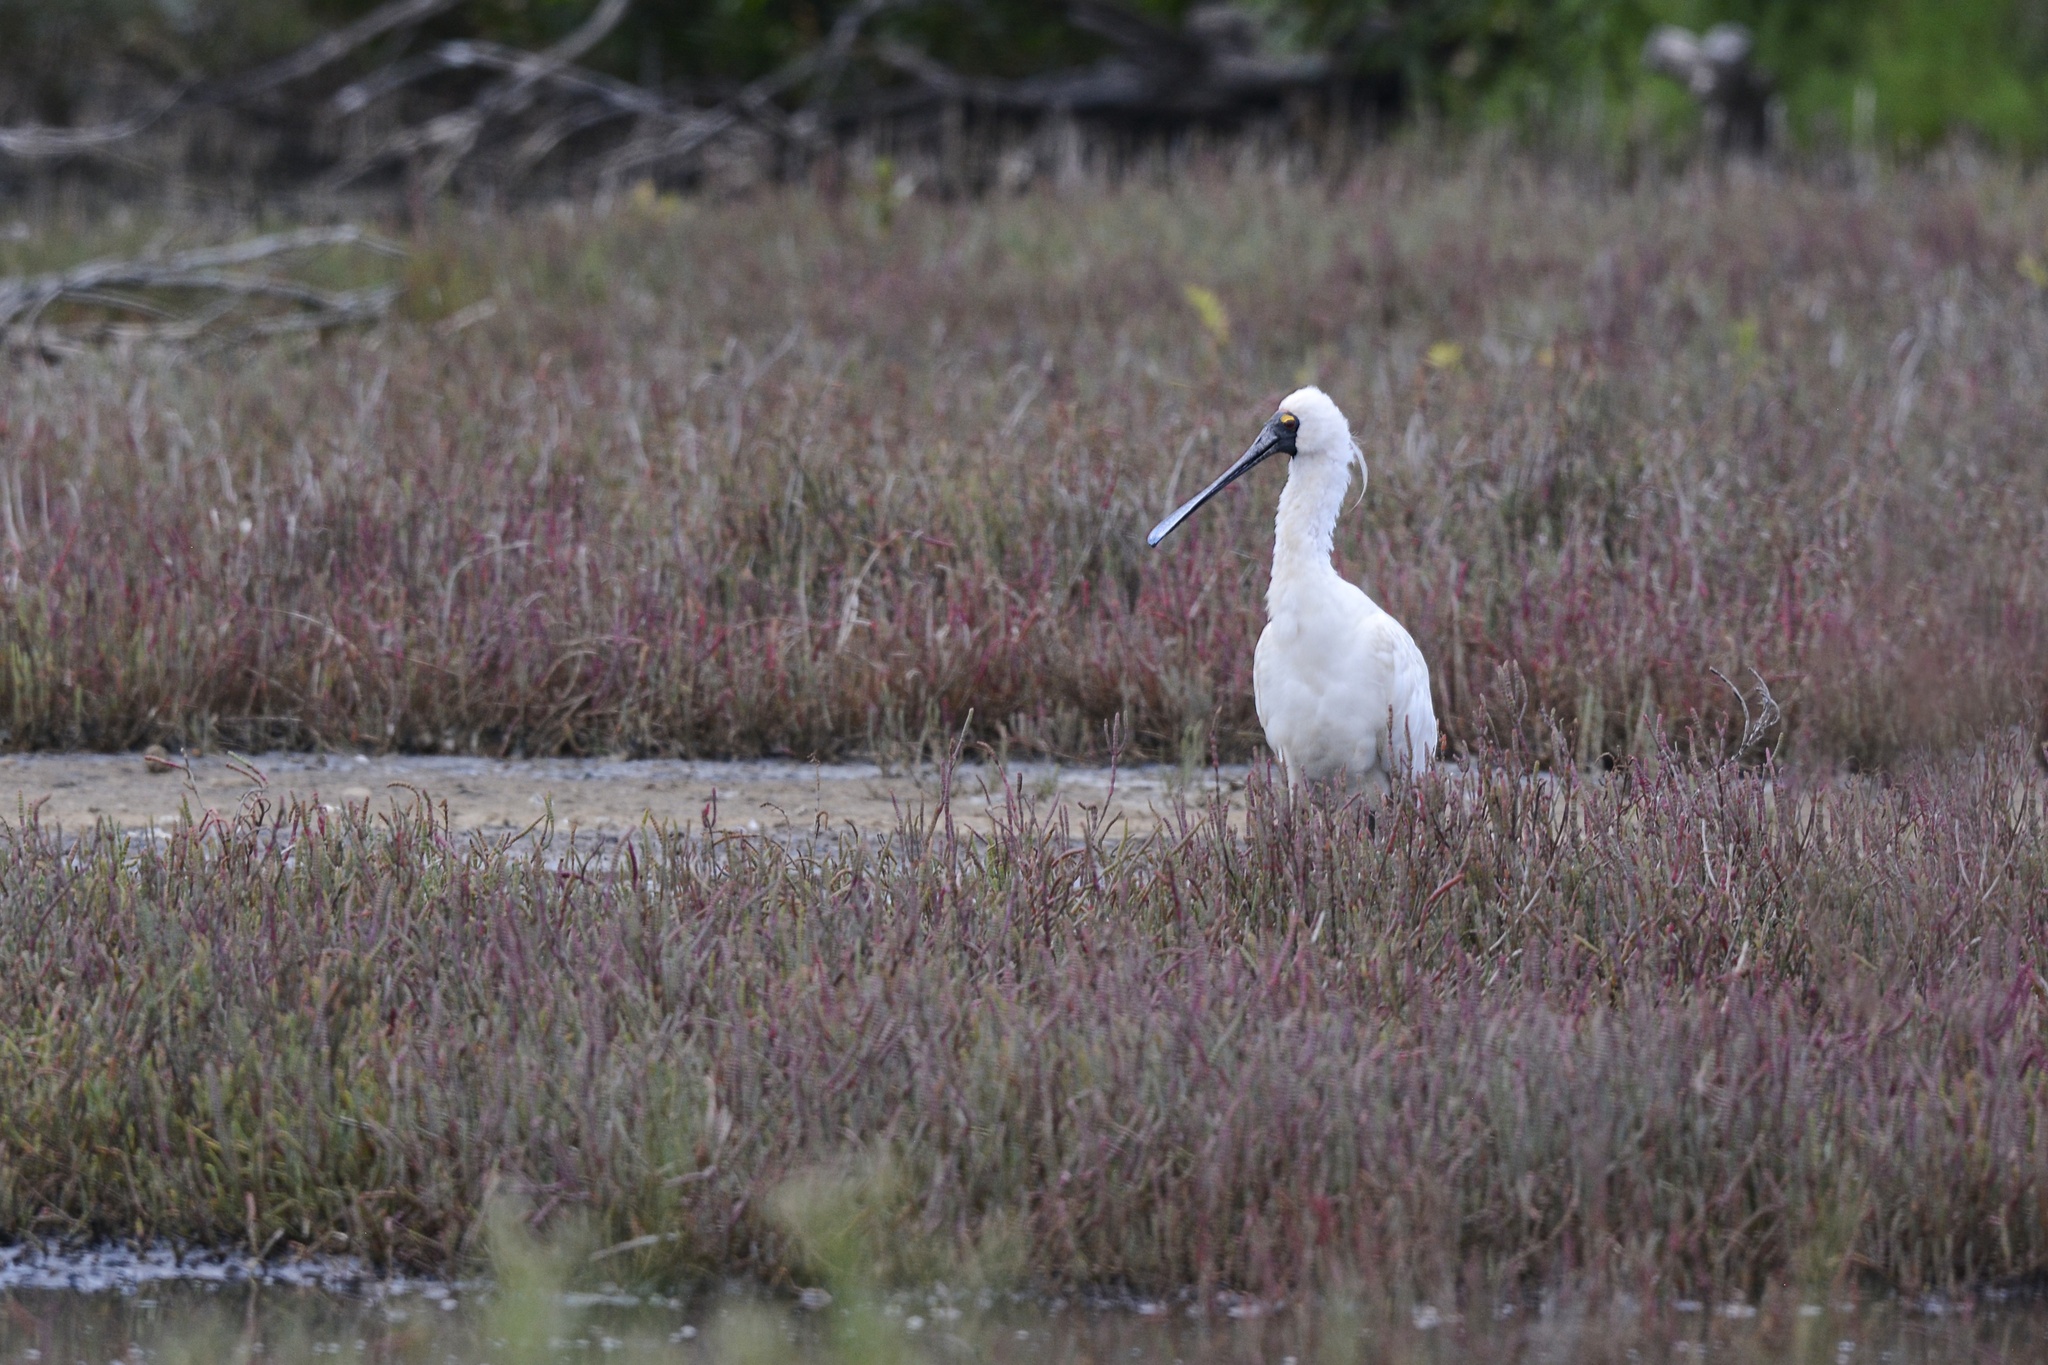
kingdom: Animalia
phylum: Chordata
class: Aves
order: Pelecaniformes
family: Threskiornithidae
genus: Platalea
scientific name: Platalea regia
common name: Royal spoonbill
